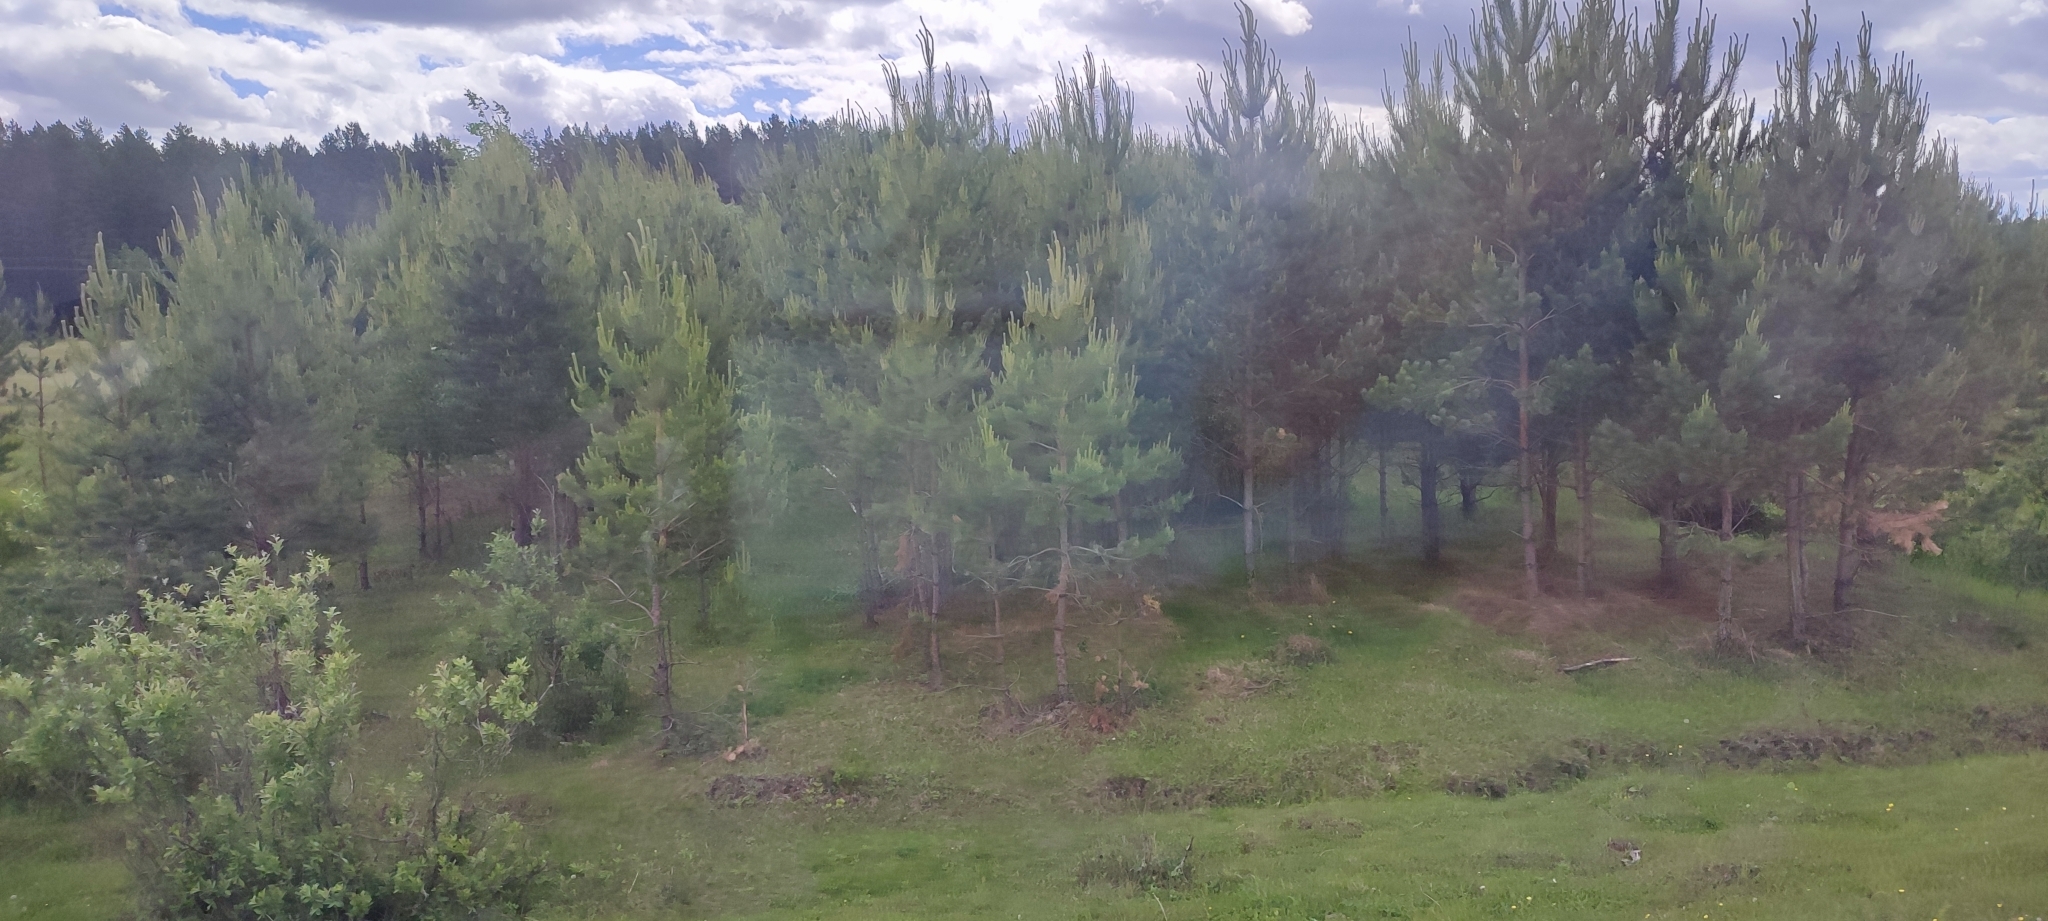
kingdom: Plantae
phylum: Tracheophyta
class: Pinopsida
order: Pinales
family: Pinaceae
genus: Pinus
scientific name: Pinus sylvestris
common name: Scots pine
